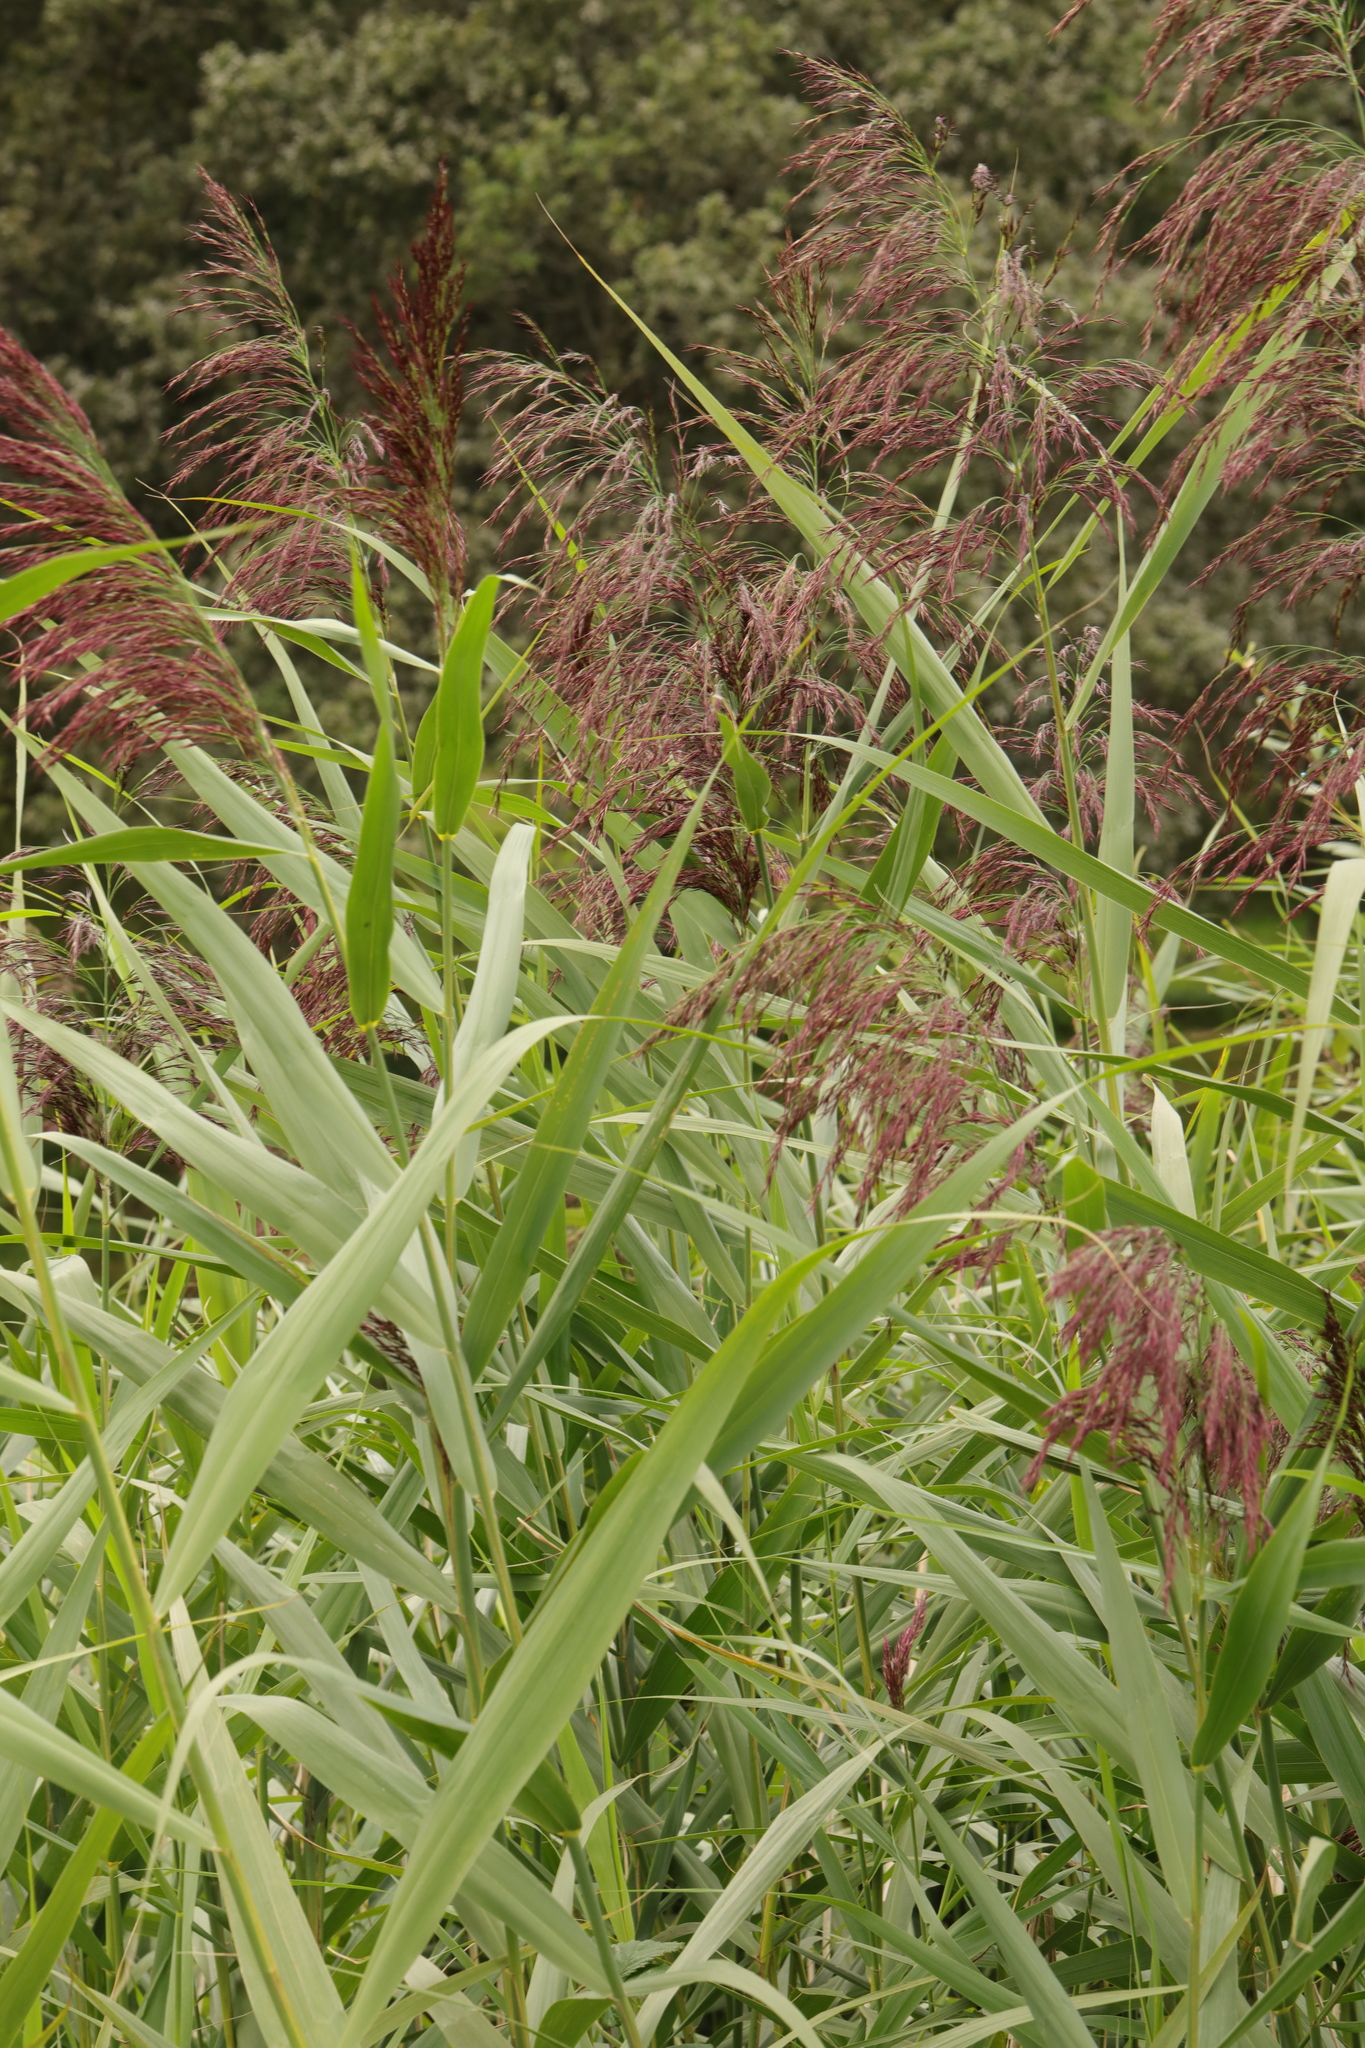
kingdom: Plantae
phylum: Tracheophyta
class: Liliopsida
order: Poales
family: Poaceae
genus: Phragmites
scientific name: Phragmites australis
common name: Common reed
